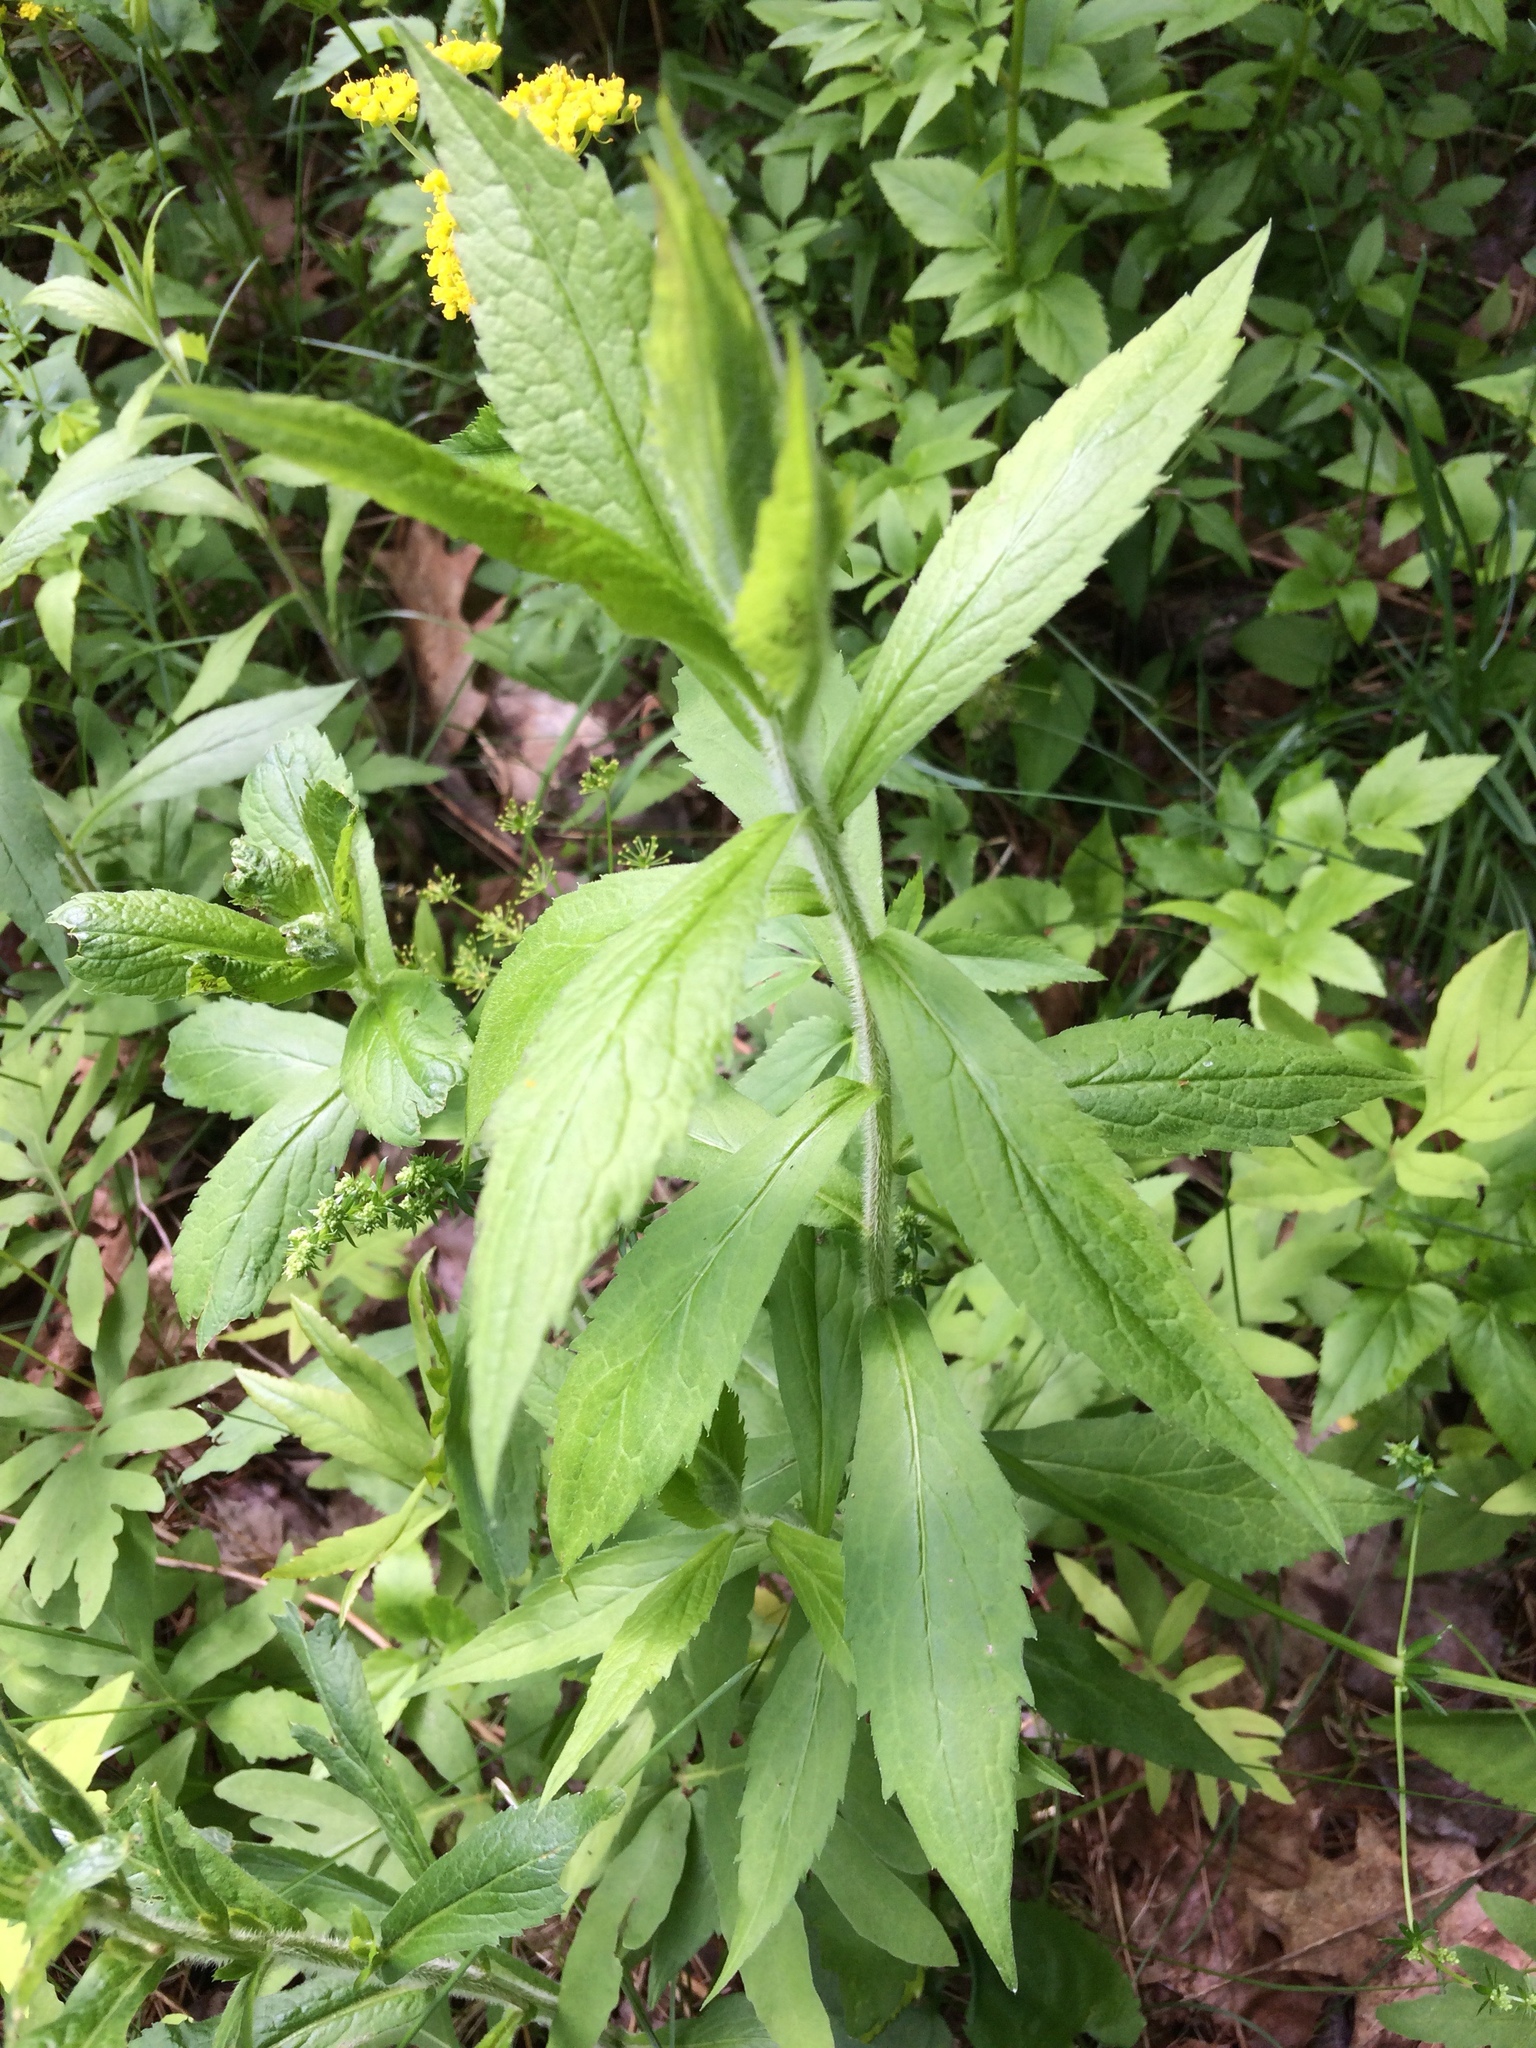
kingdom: Plantae
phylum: Tracheophyta
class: Magnoliopsida
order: Asterales
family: Asteraceae
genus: Solidago
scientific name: Solidago rugosa
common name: Rough-stemmed goldenrod
